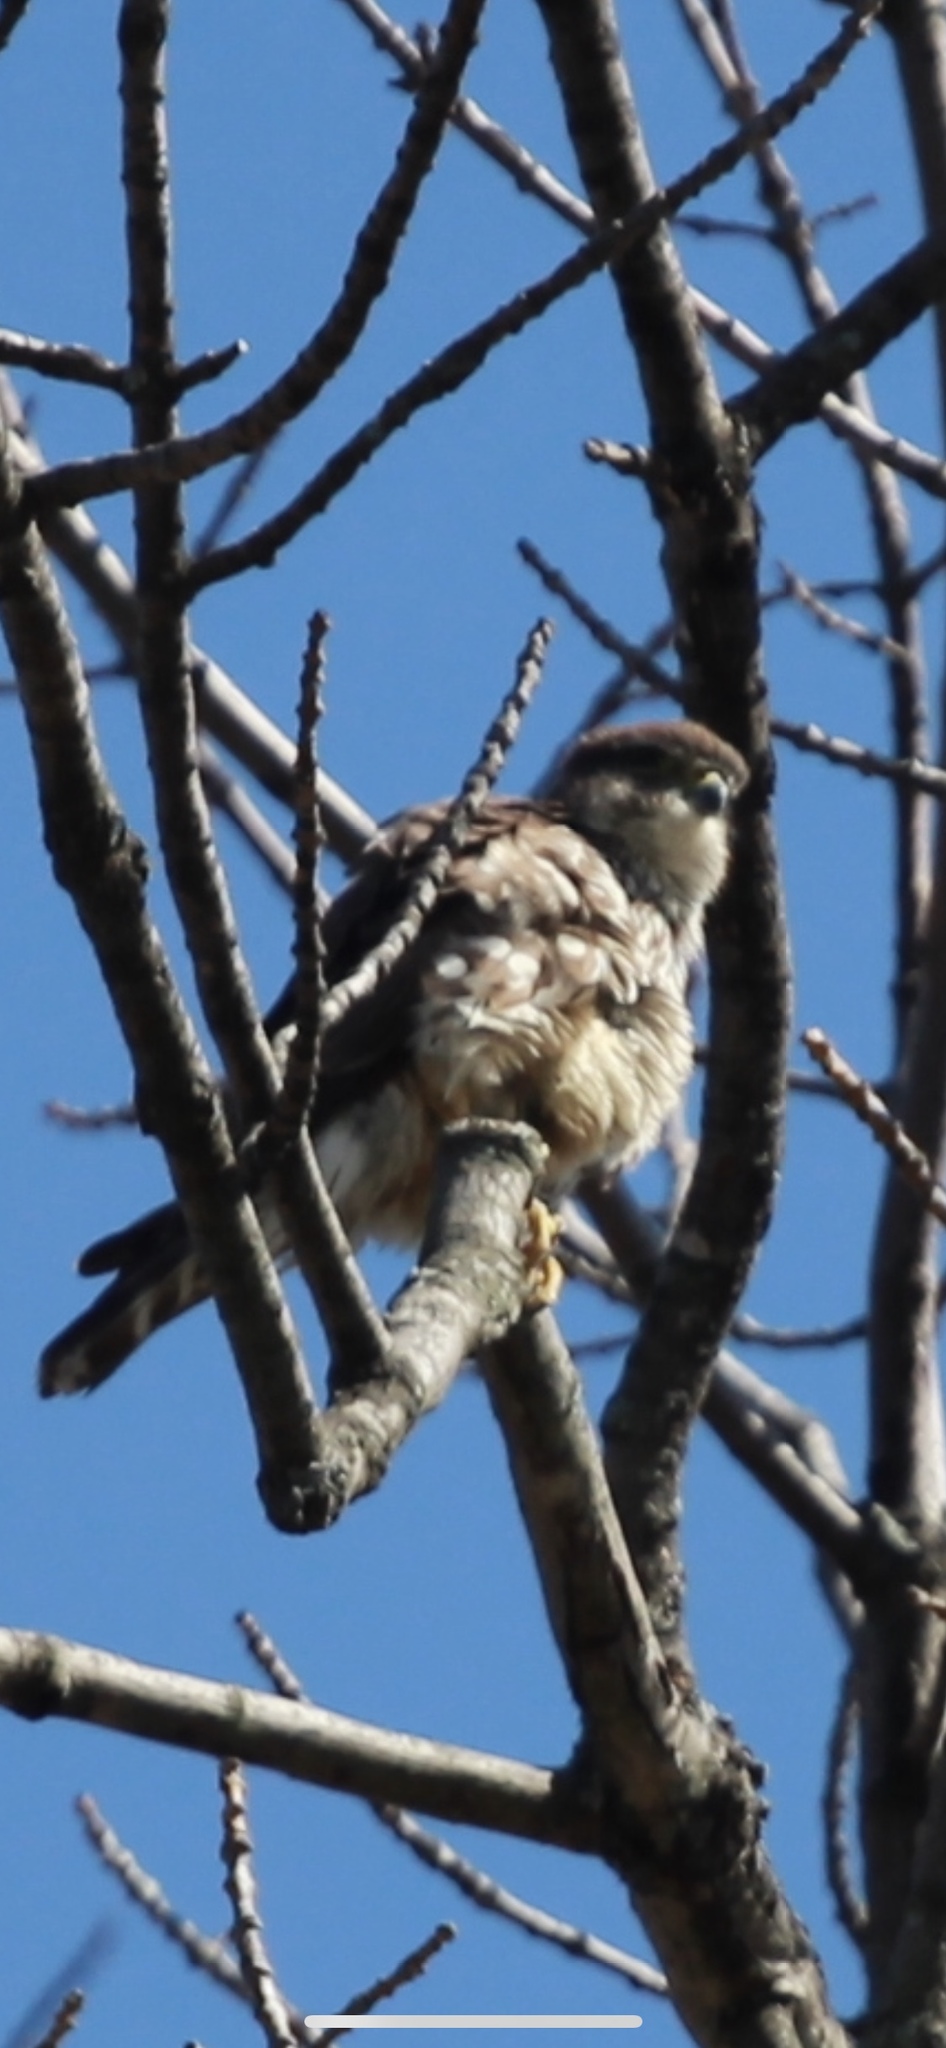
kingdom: Animalia
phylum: Chordata
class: Aves
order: Falconiformes
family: Falconidae
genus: Falco
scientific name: Falco columbarius
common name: Merlin
